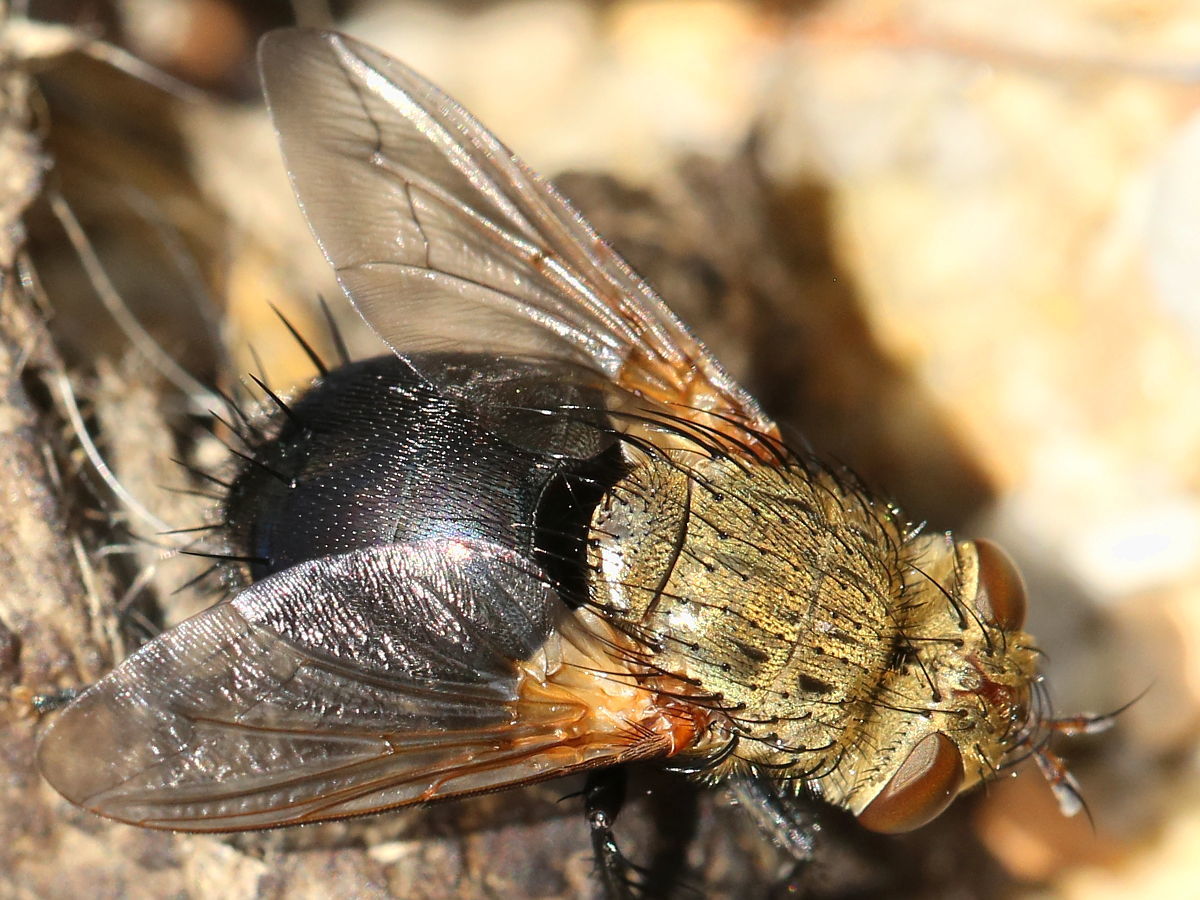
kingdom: Animalia
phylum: Arthropoda
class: Insecta
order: Diptera
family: Tachinidae
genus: Archytas
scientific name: Archytas
